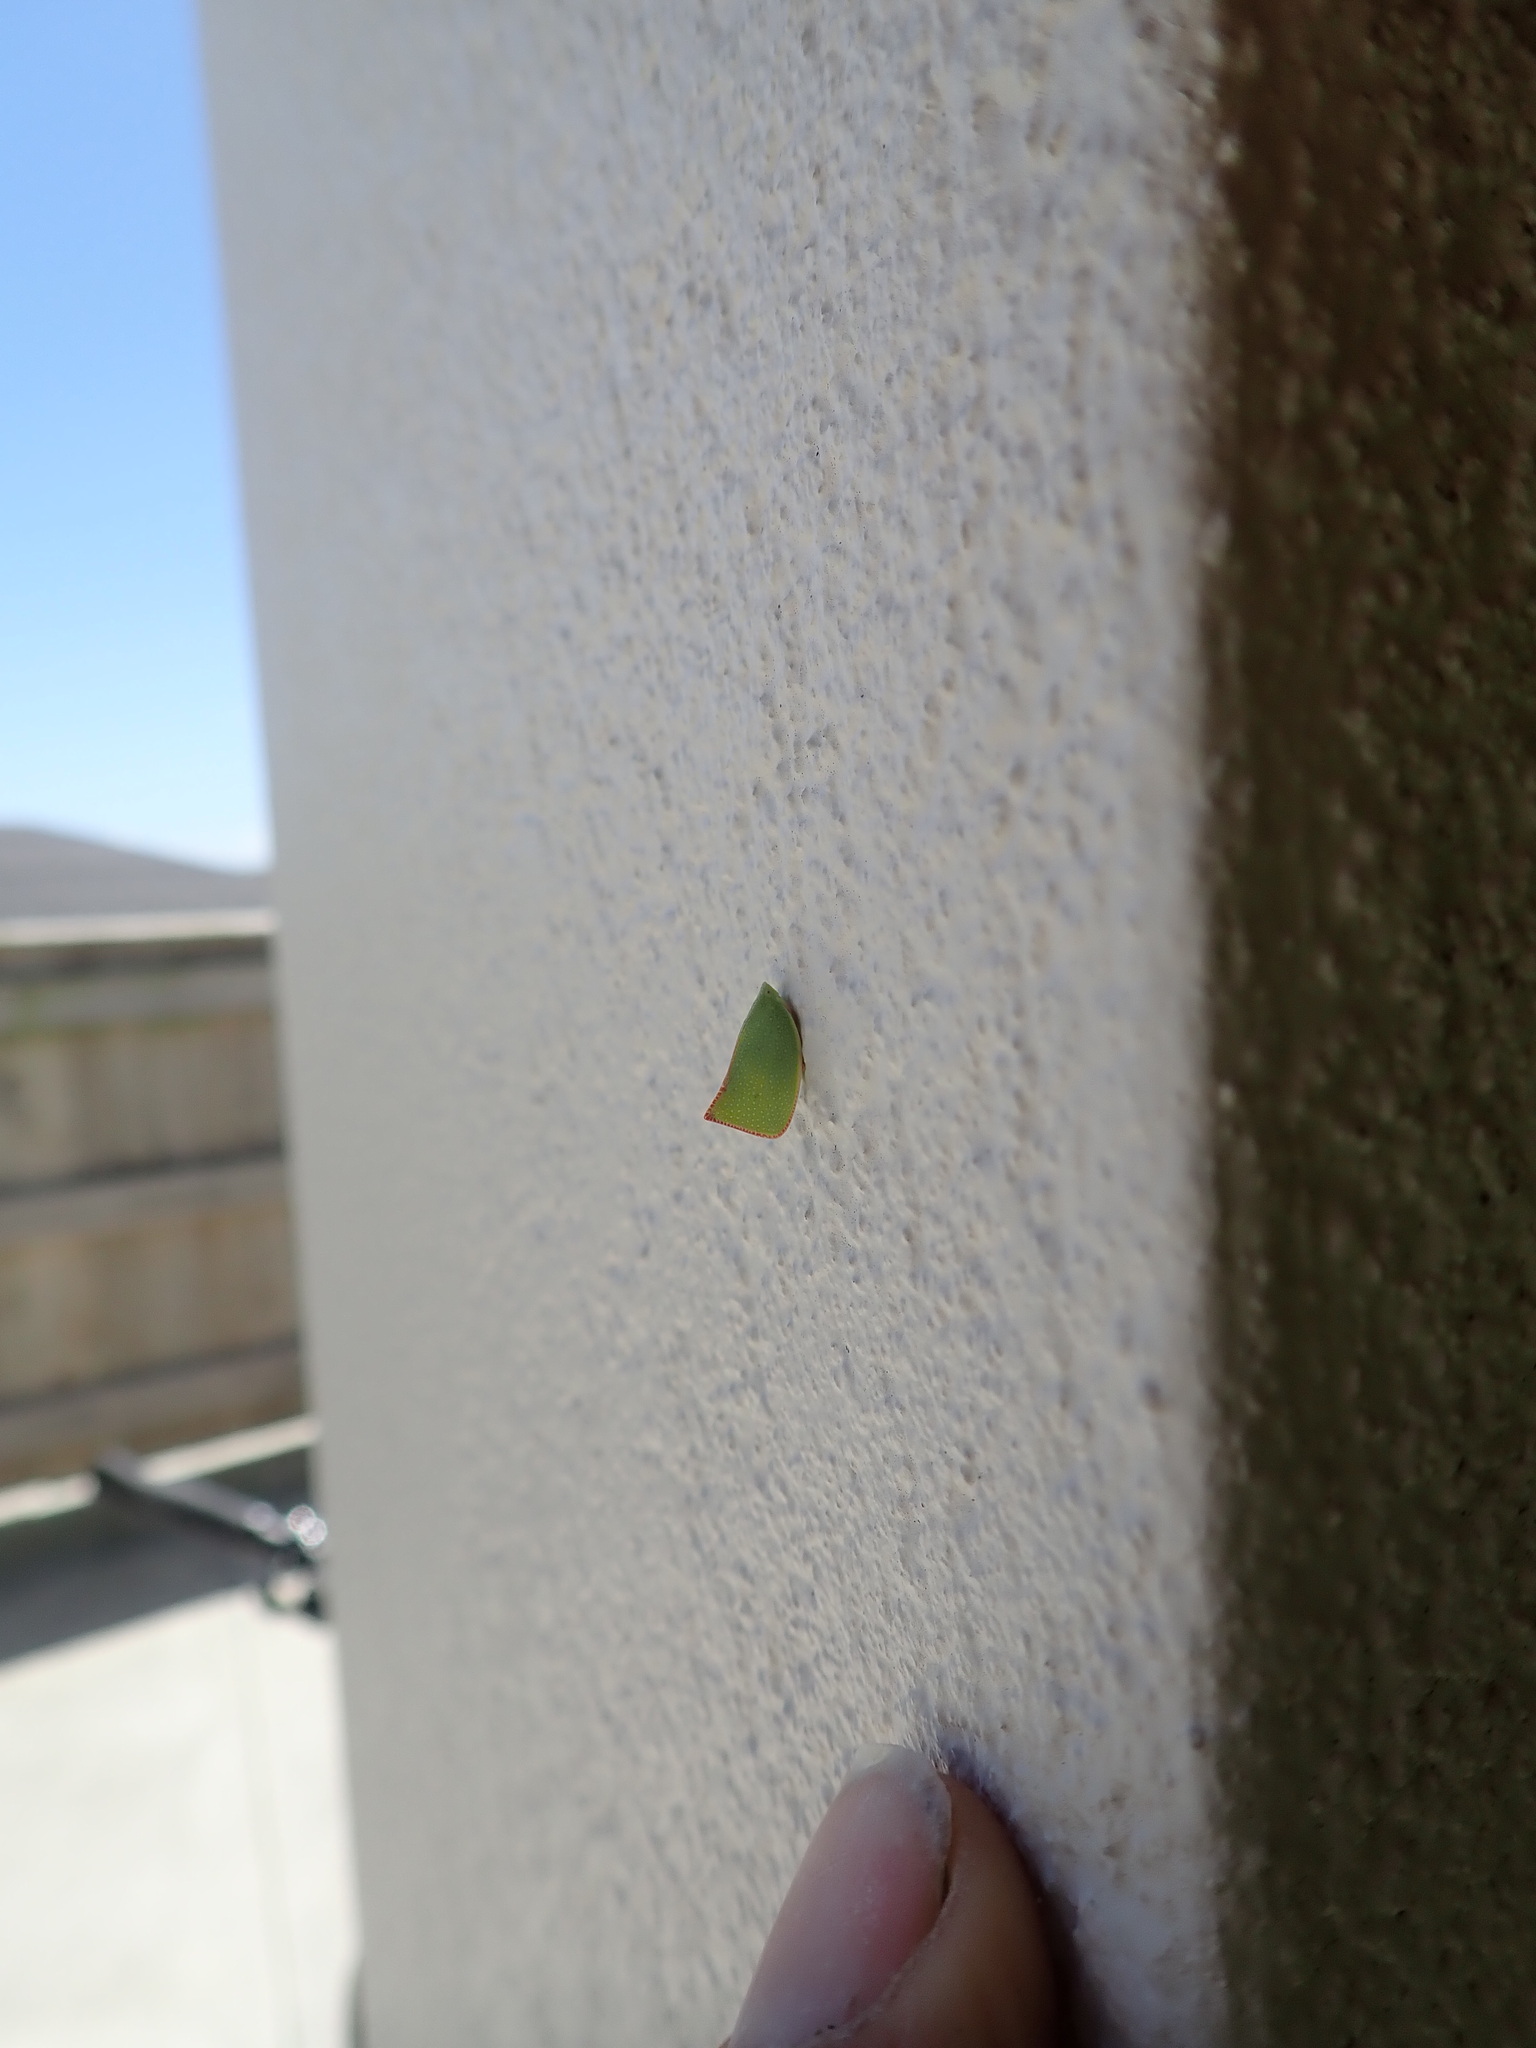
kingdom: Animalia
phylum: Arthropoda
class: Insecta
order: Hemiptera
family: Flatidae
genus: Siphanta
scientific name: Siphanta acuta
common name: Torpedo bug
